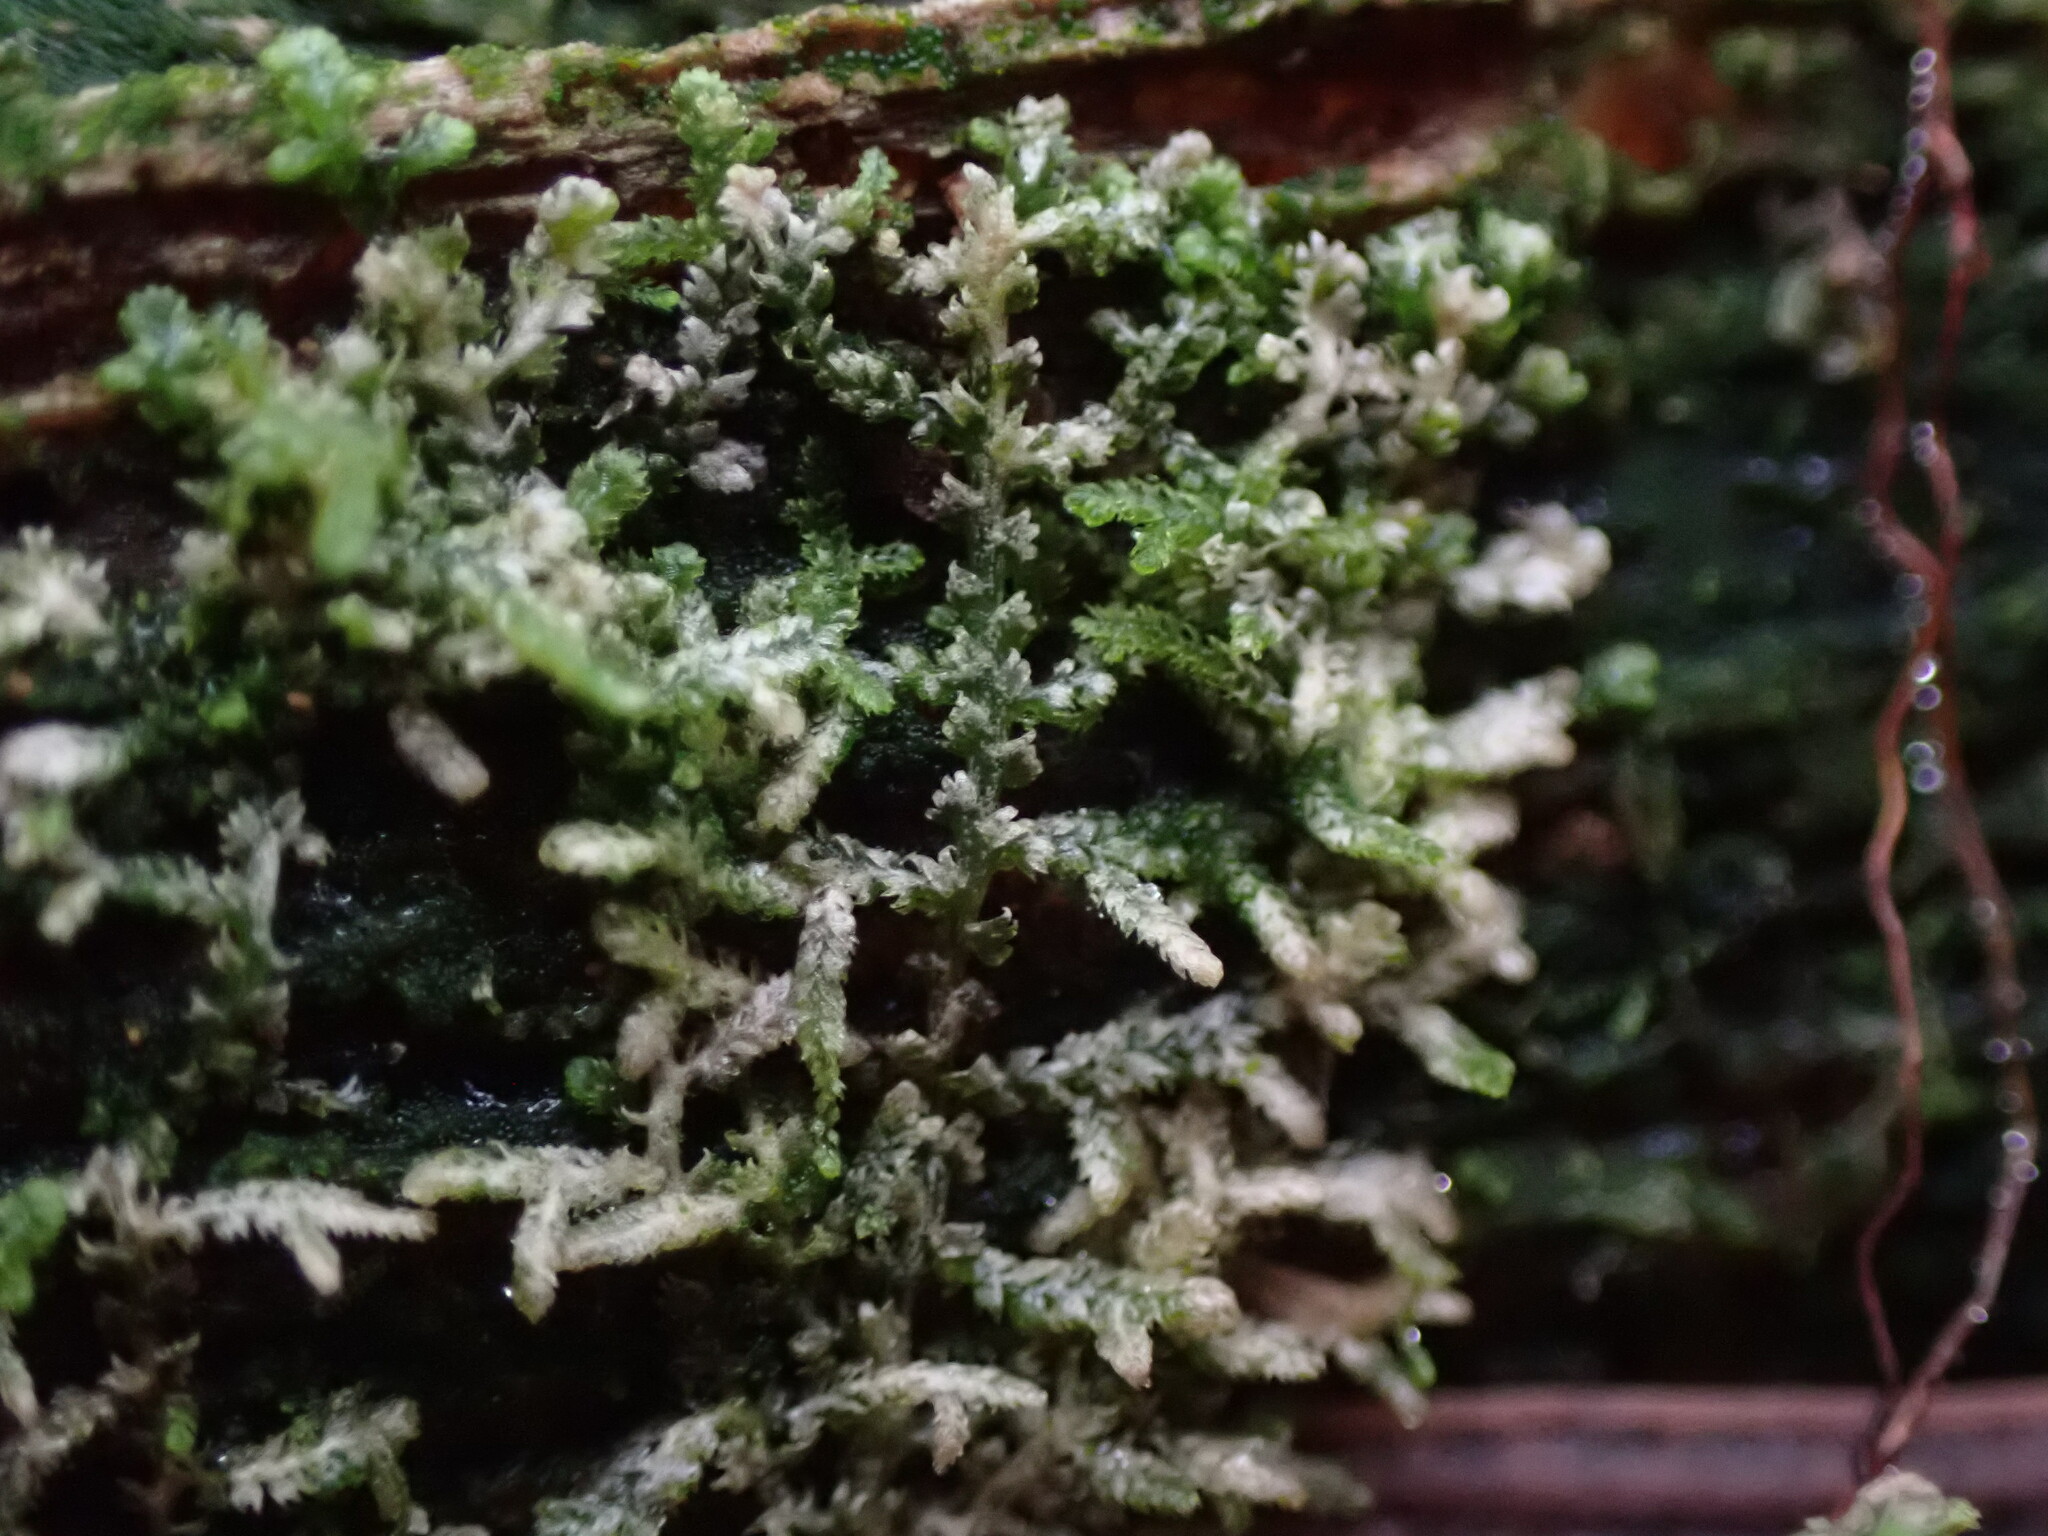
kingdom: Plantae
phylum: Marchantiophyta
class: Jungermanniopsida
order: Jungermanniales
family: Lepidoziaceae
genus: Lepidozia
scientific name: Lepidozia reptans
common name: Creeping fingerwort
